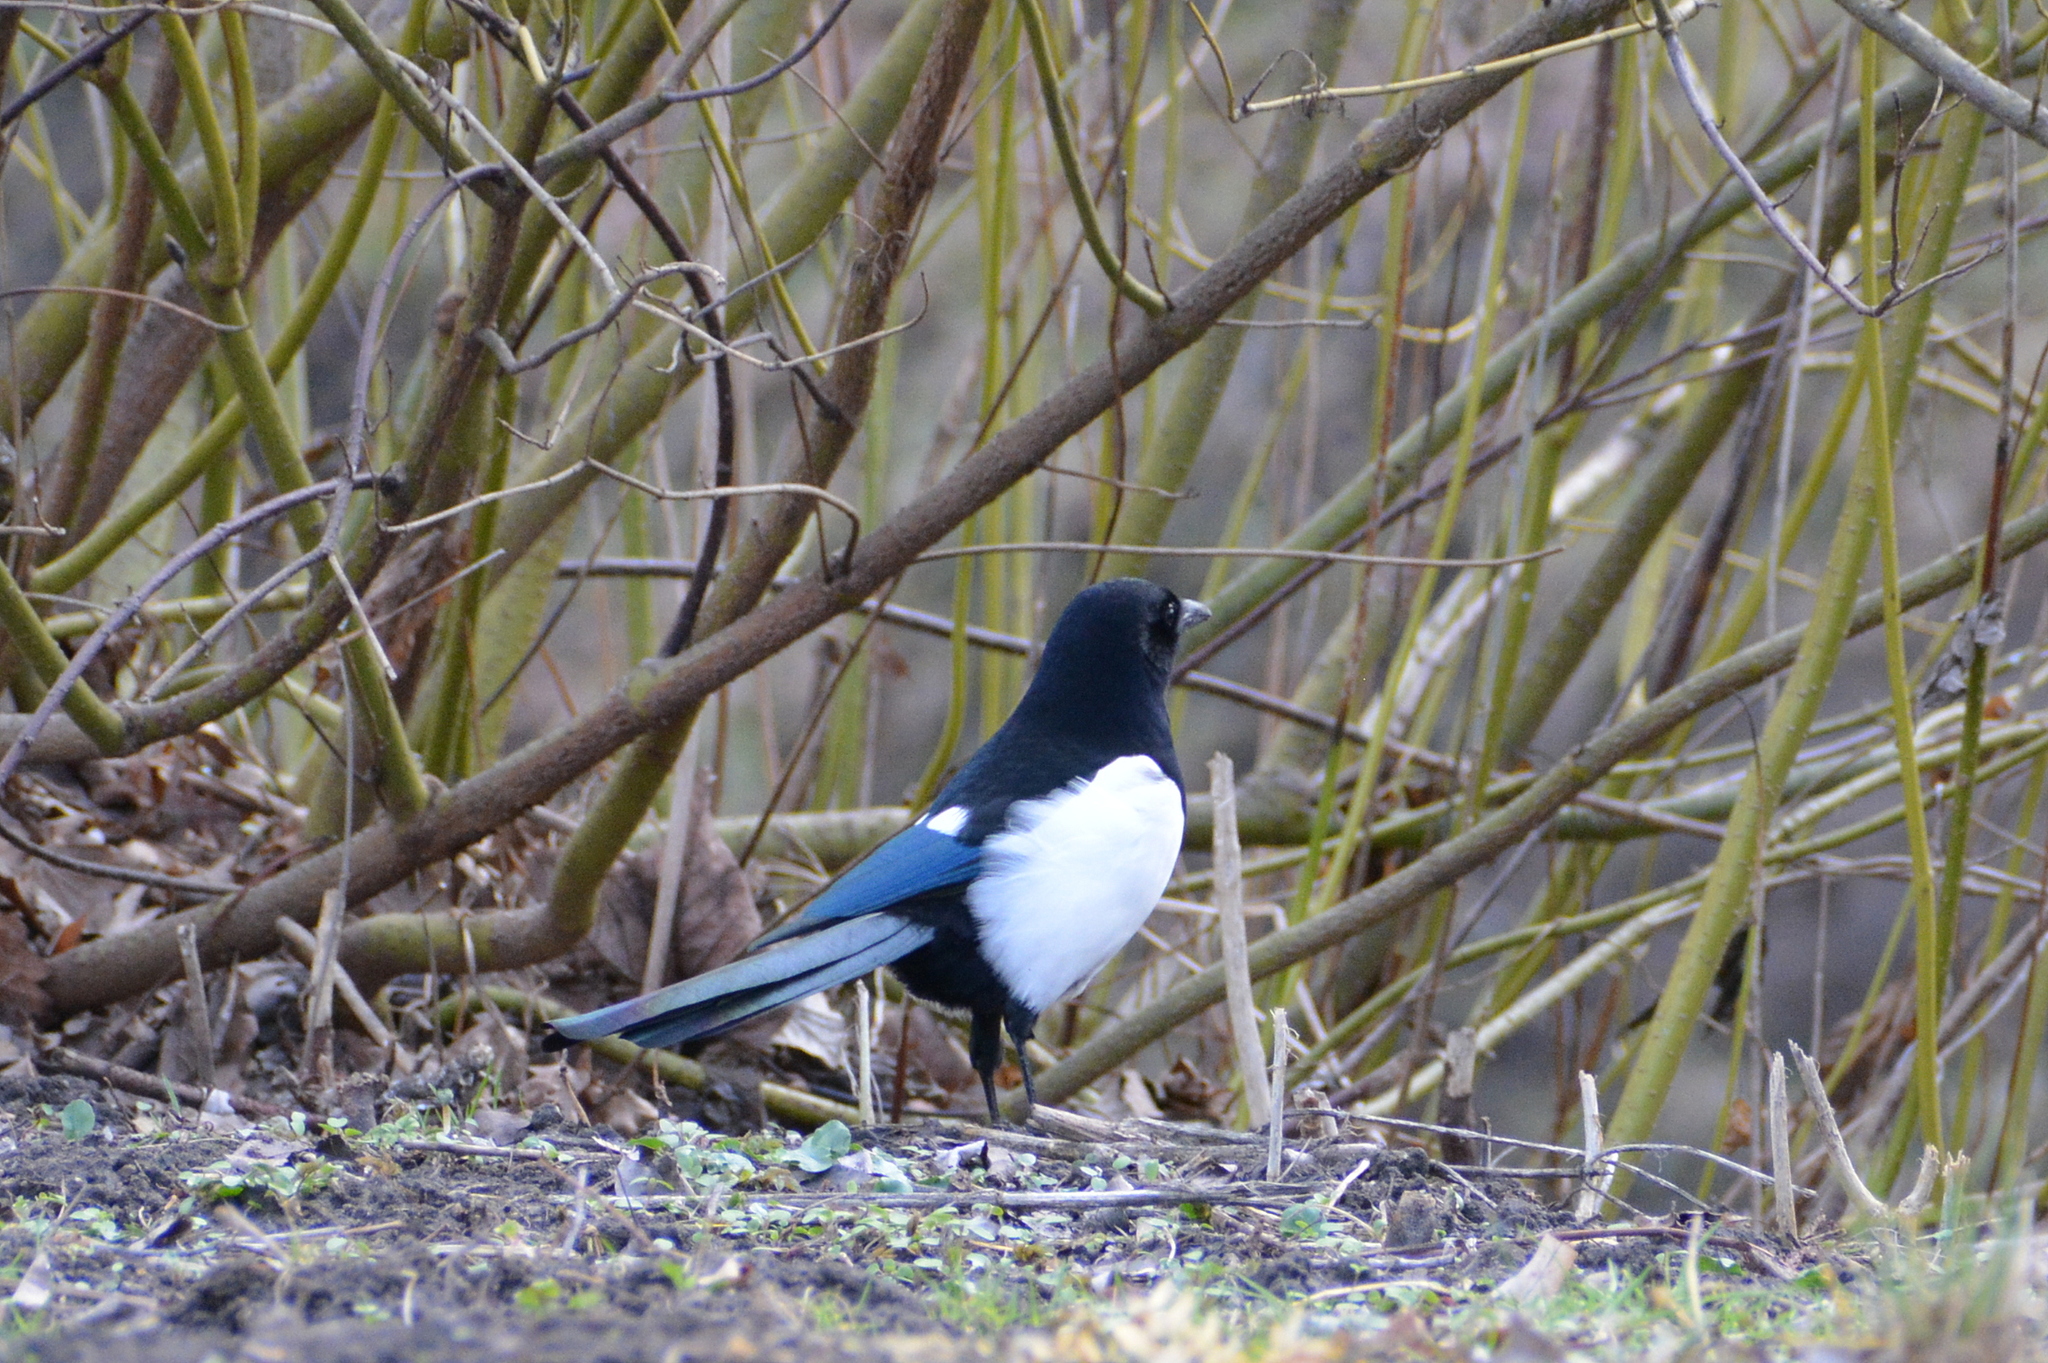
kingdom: Animalia
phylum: Chordata
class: Aves
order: Passeriformes
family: Corvidae
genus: Pica
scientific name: Pica pica
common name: Eurasian magpie
